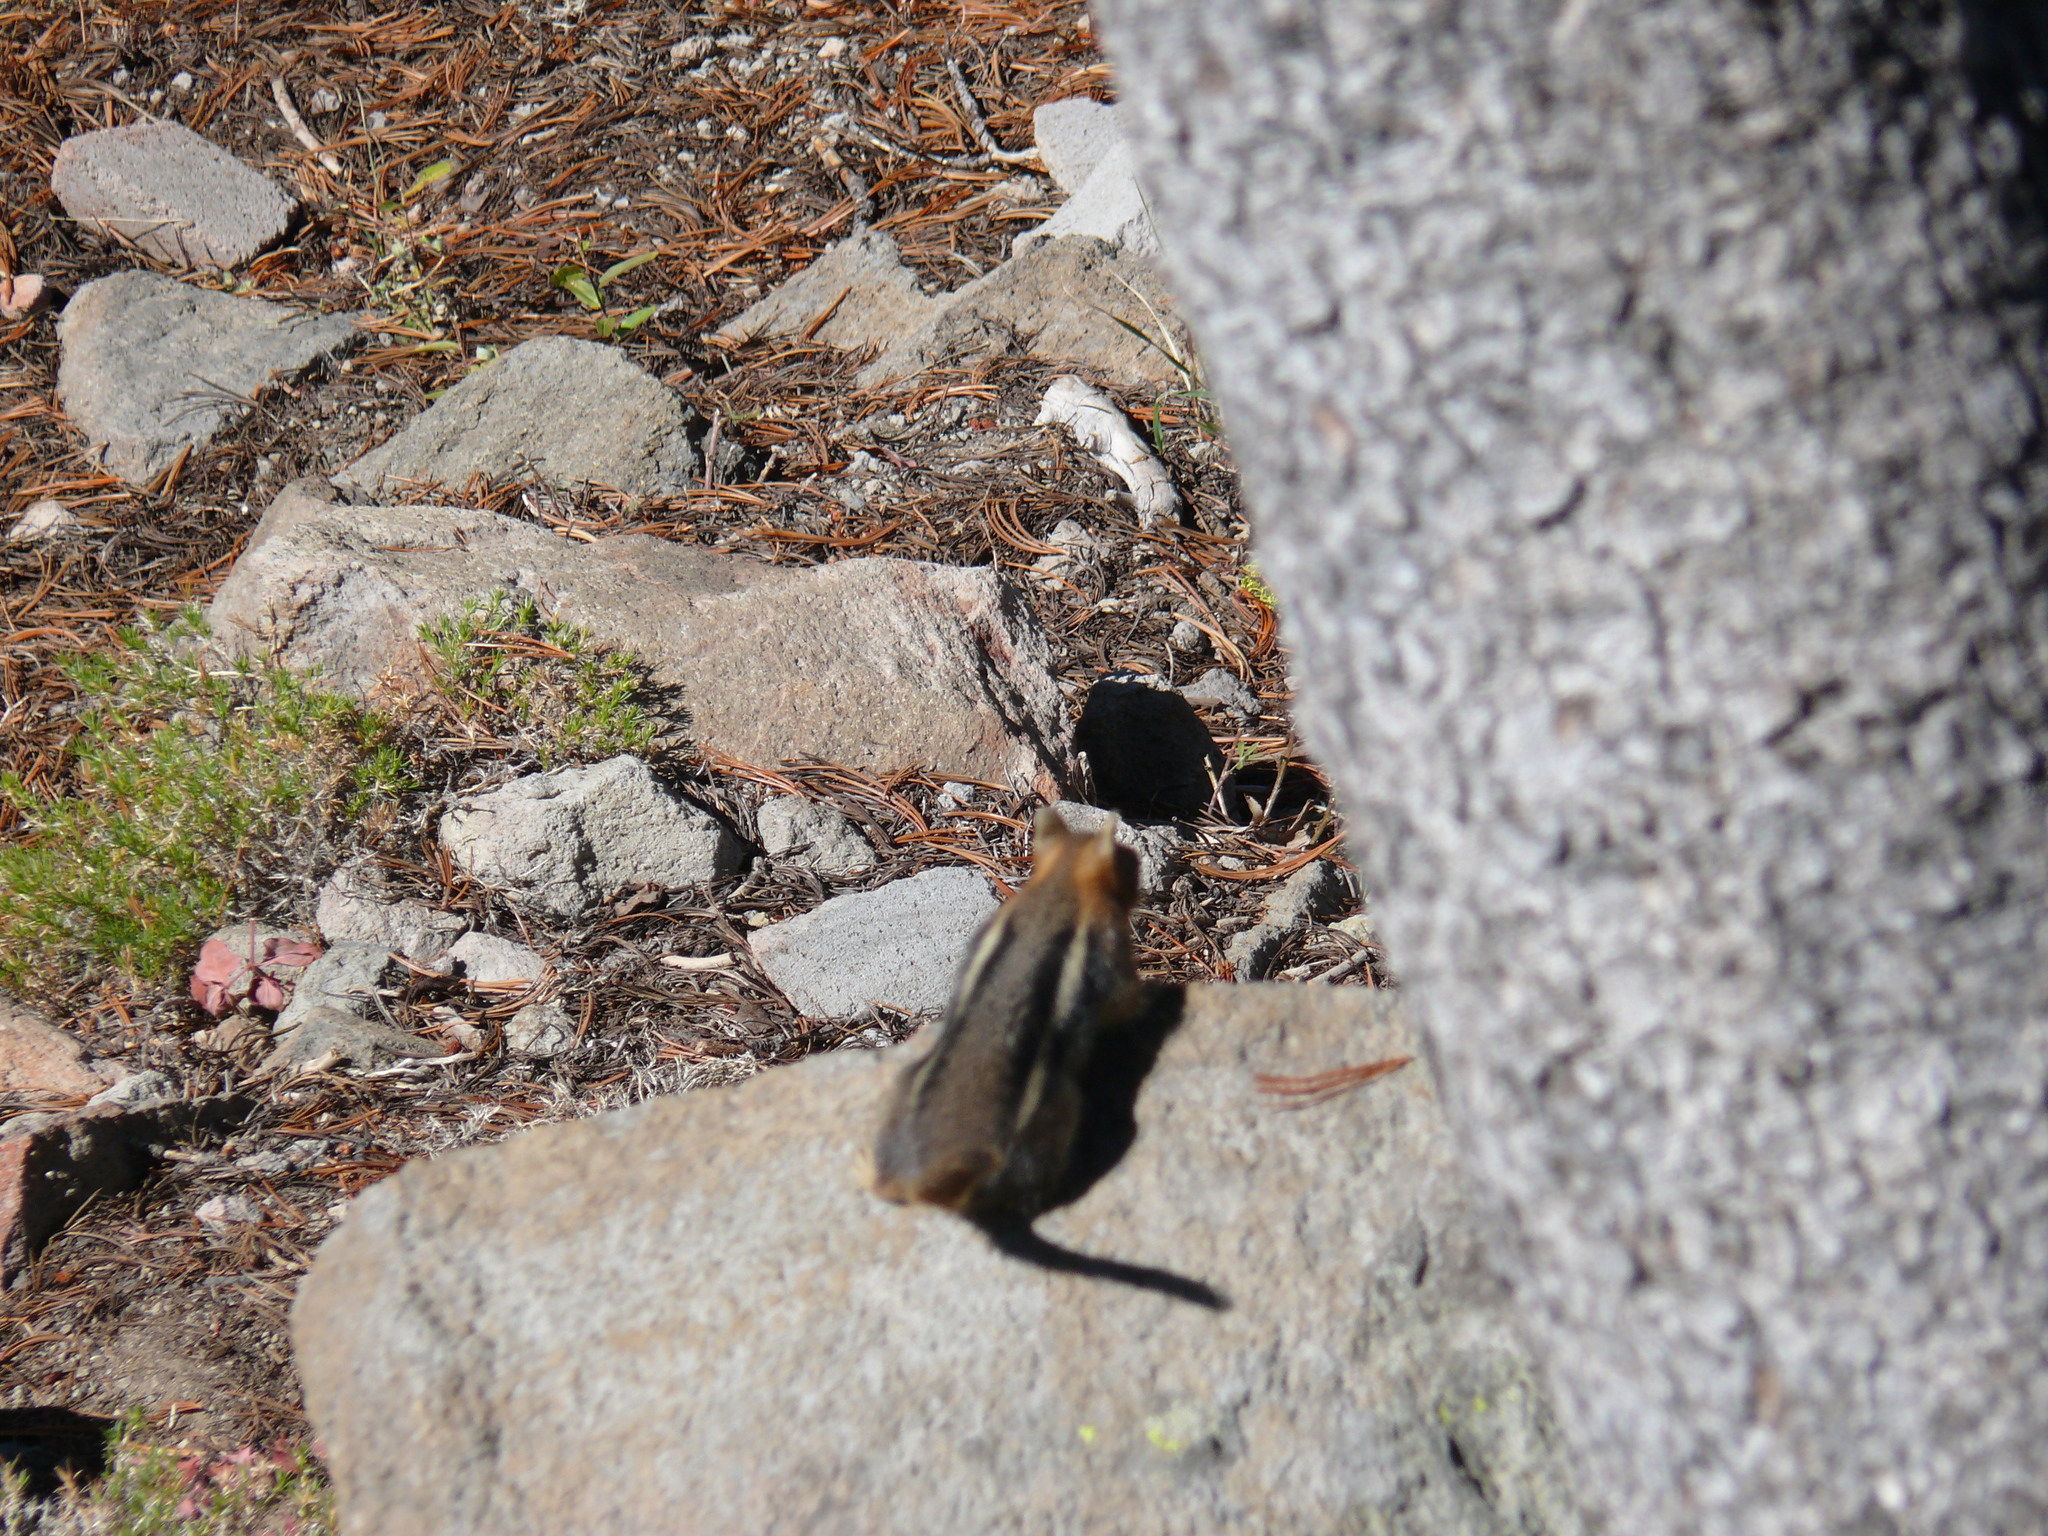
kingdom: Animalia
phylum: Chordata
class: Mammalia
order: Rodentia
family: Sciuridae
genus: Callospermophilus
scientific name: Callospermophilus lateralis
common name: Golden-mantled ground squirrel
